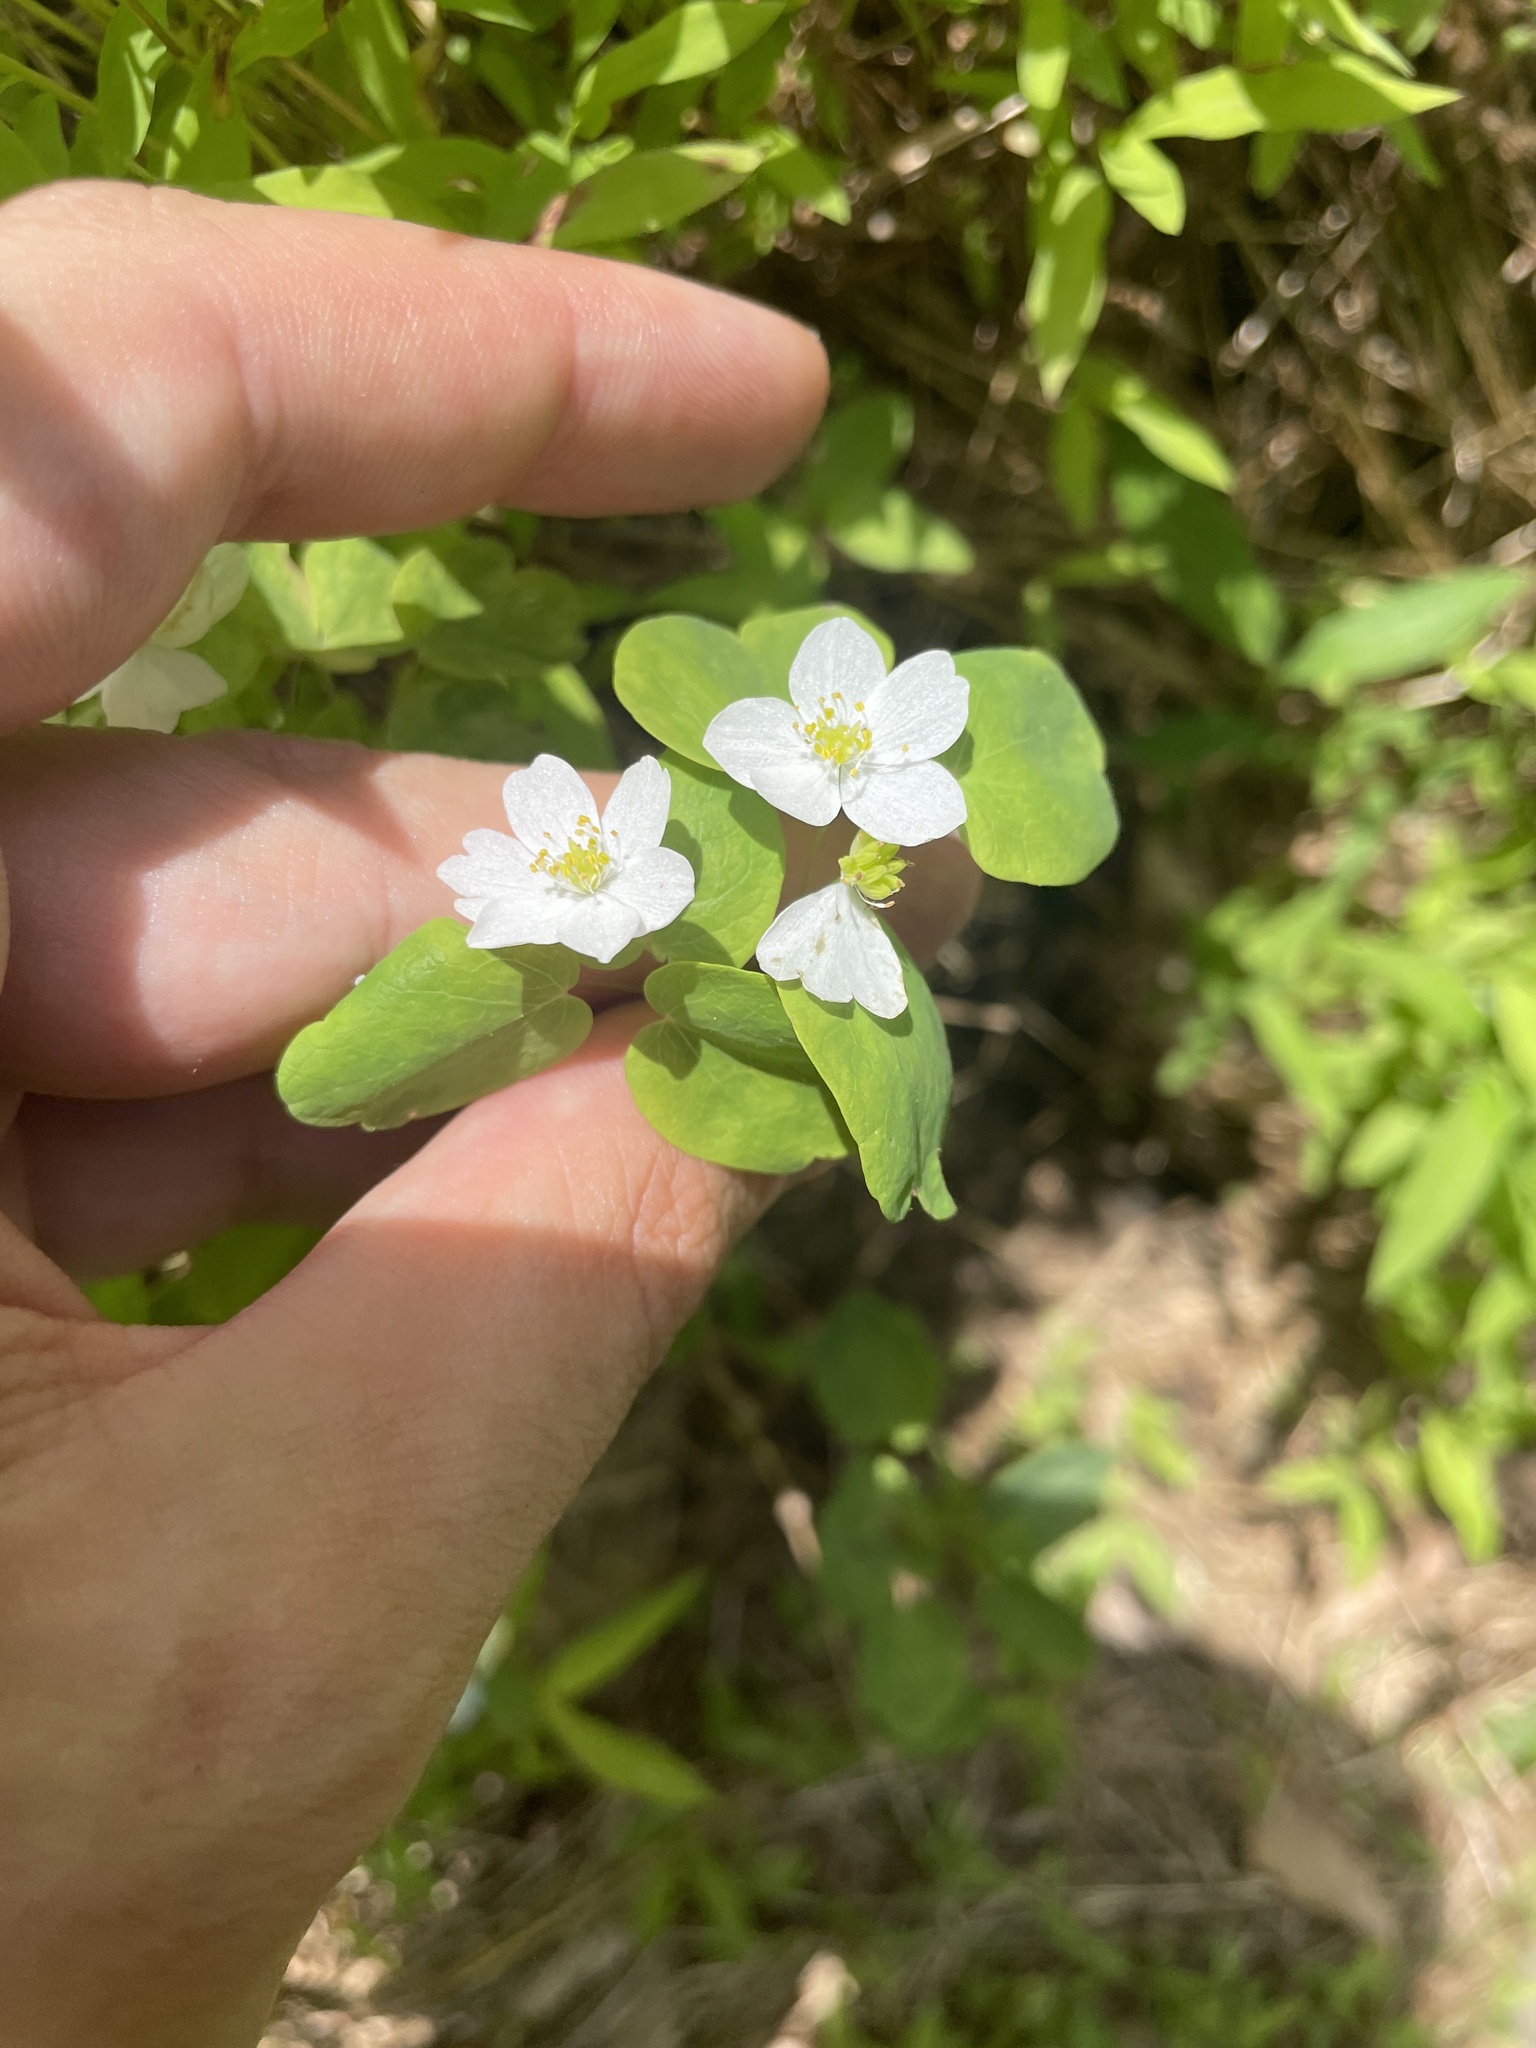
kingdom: Plantae
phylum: Tracheophyta
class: Magnoliopsida
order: Ranunculales
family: Ranunculaceae
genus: Thalictrum
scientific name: Thalictrum thalictroides
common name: Rue-anemone
